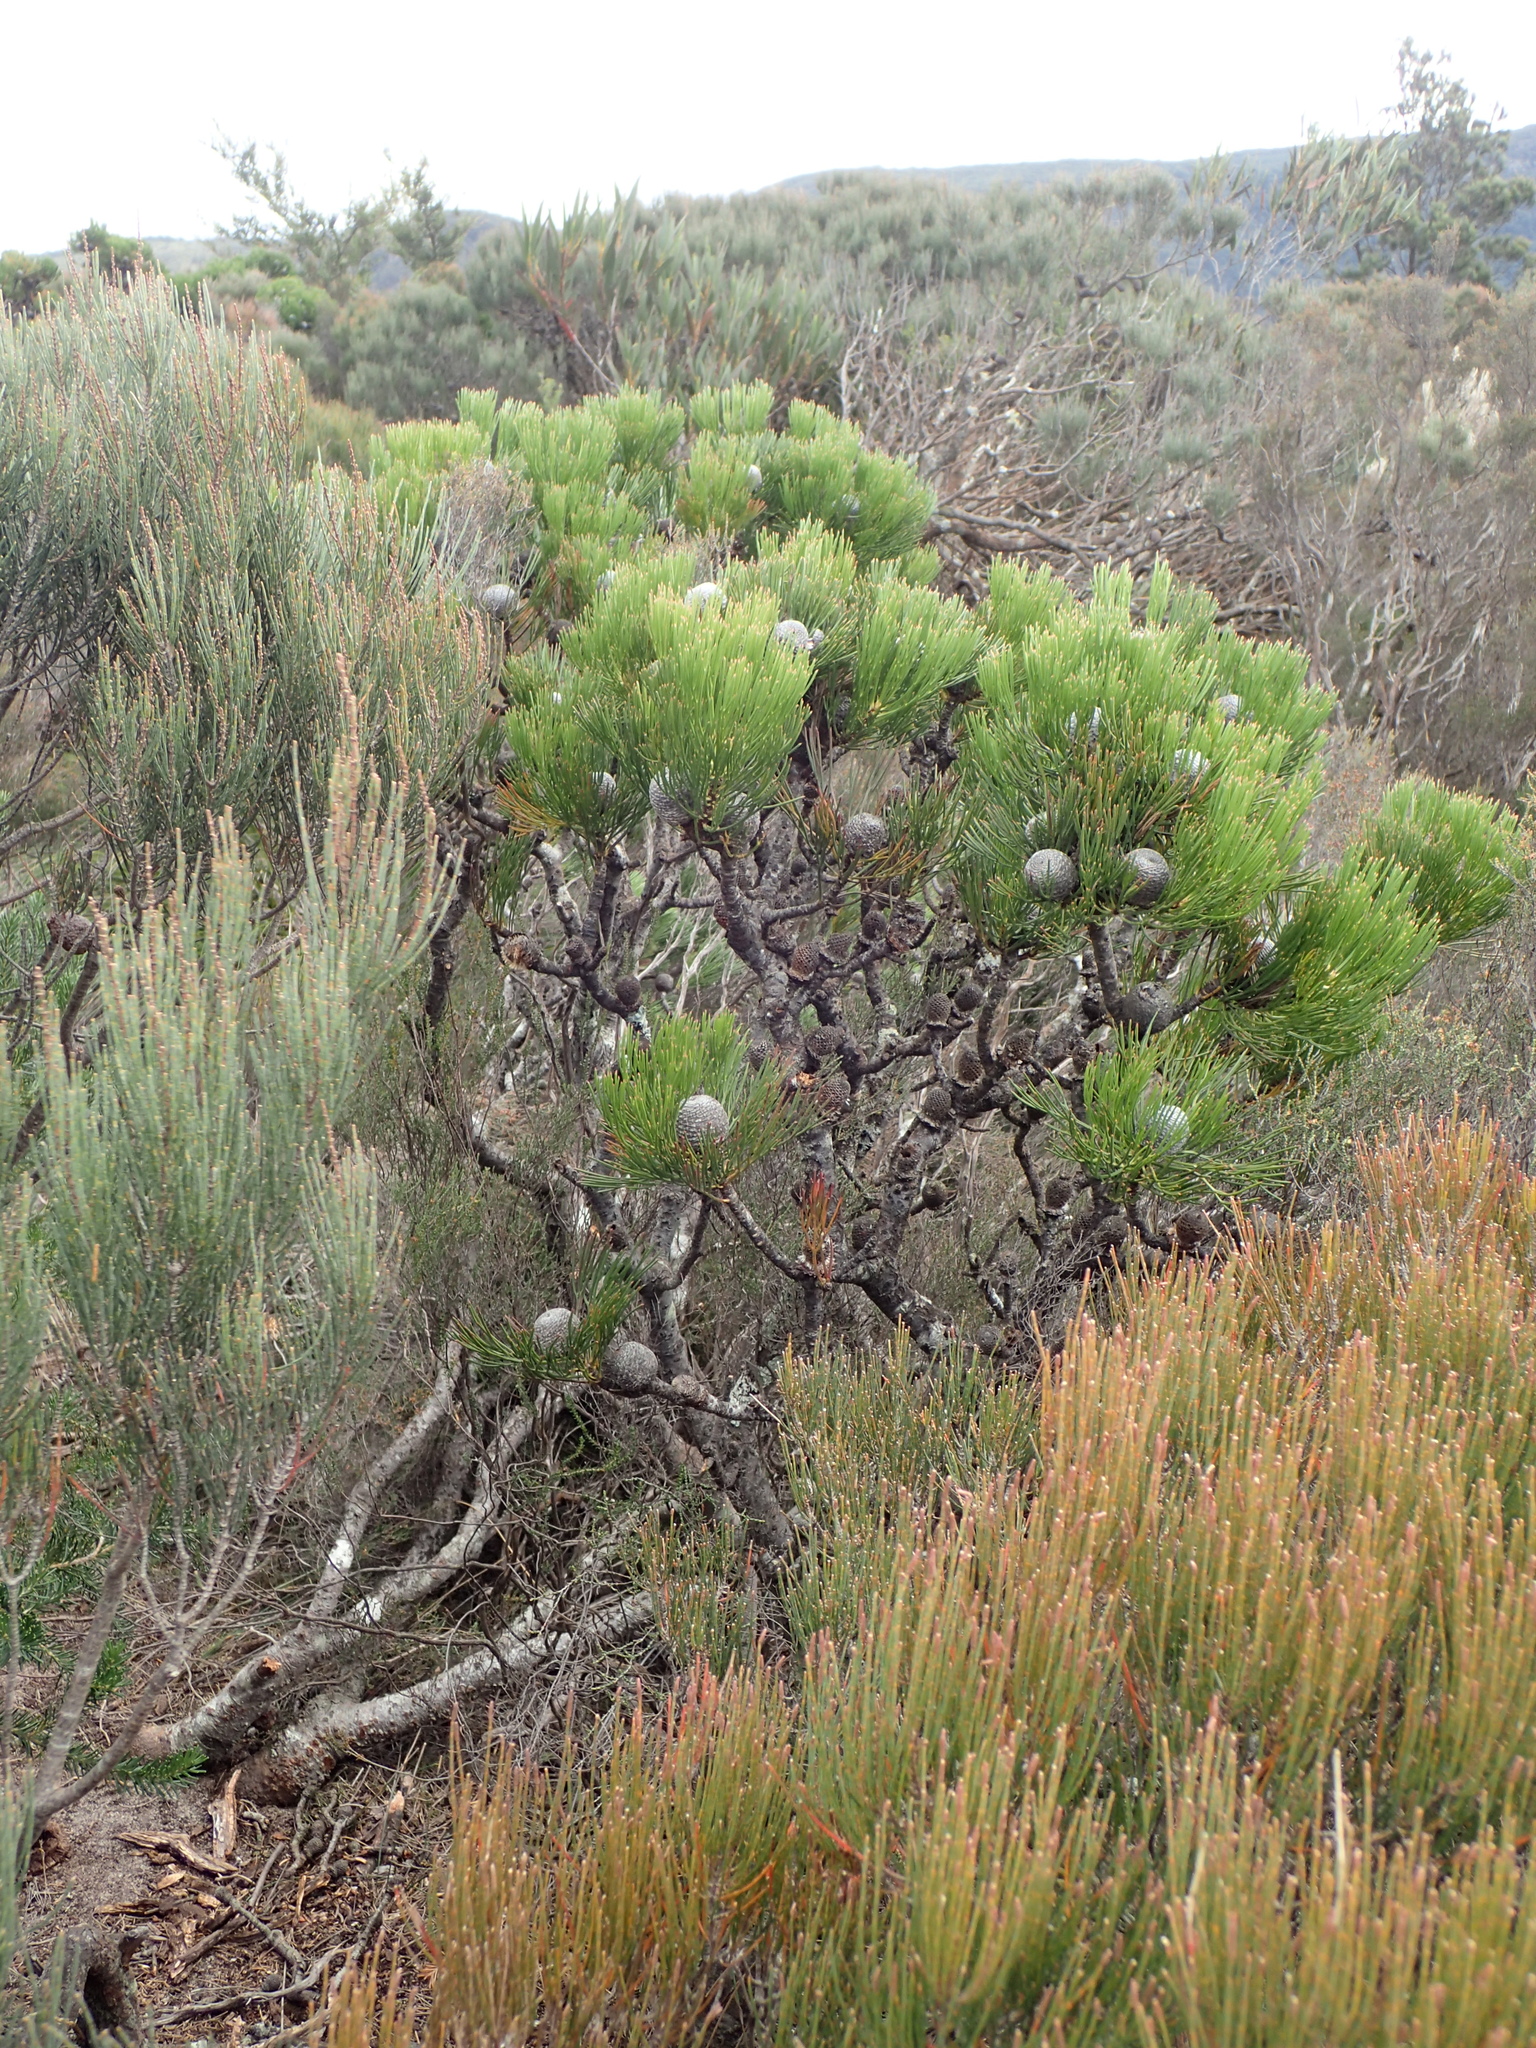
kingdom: Plantae
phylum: Tracheophyta
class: Magnoliopsida
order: Proteales
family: Proteaceae
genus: Isopogon
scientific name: Isopogon anethifolius
